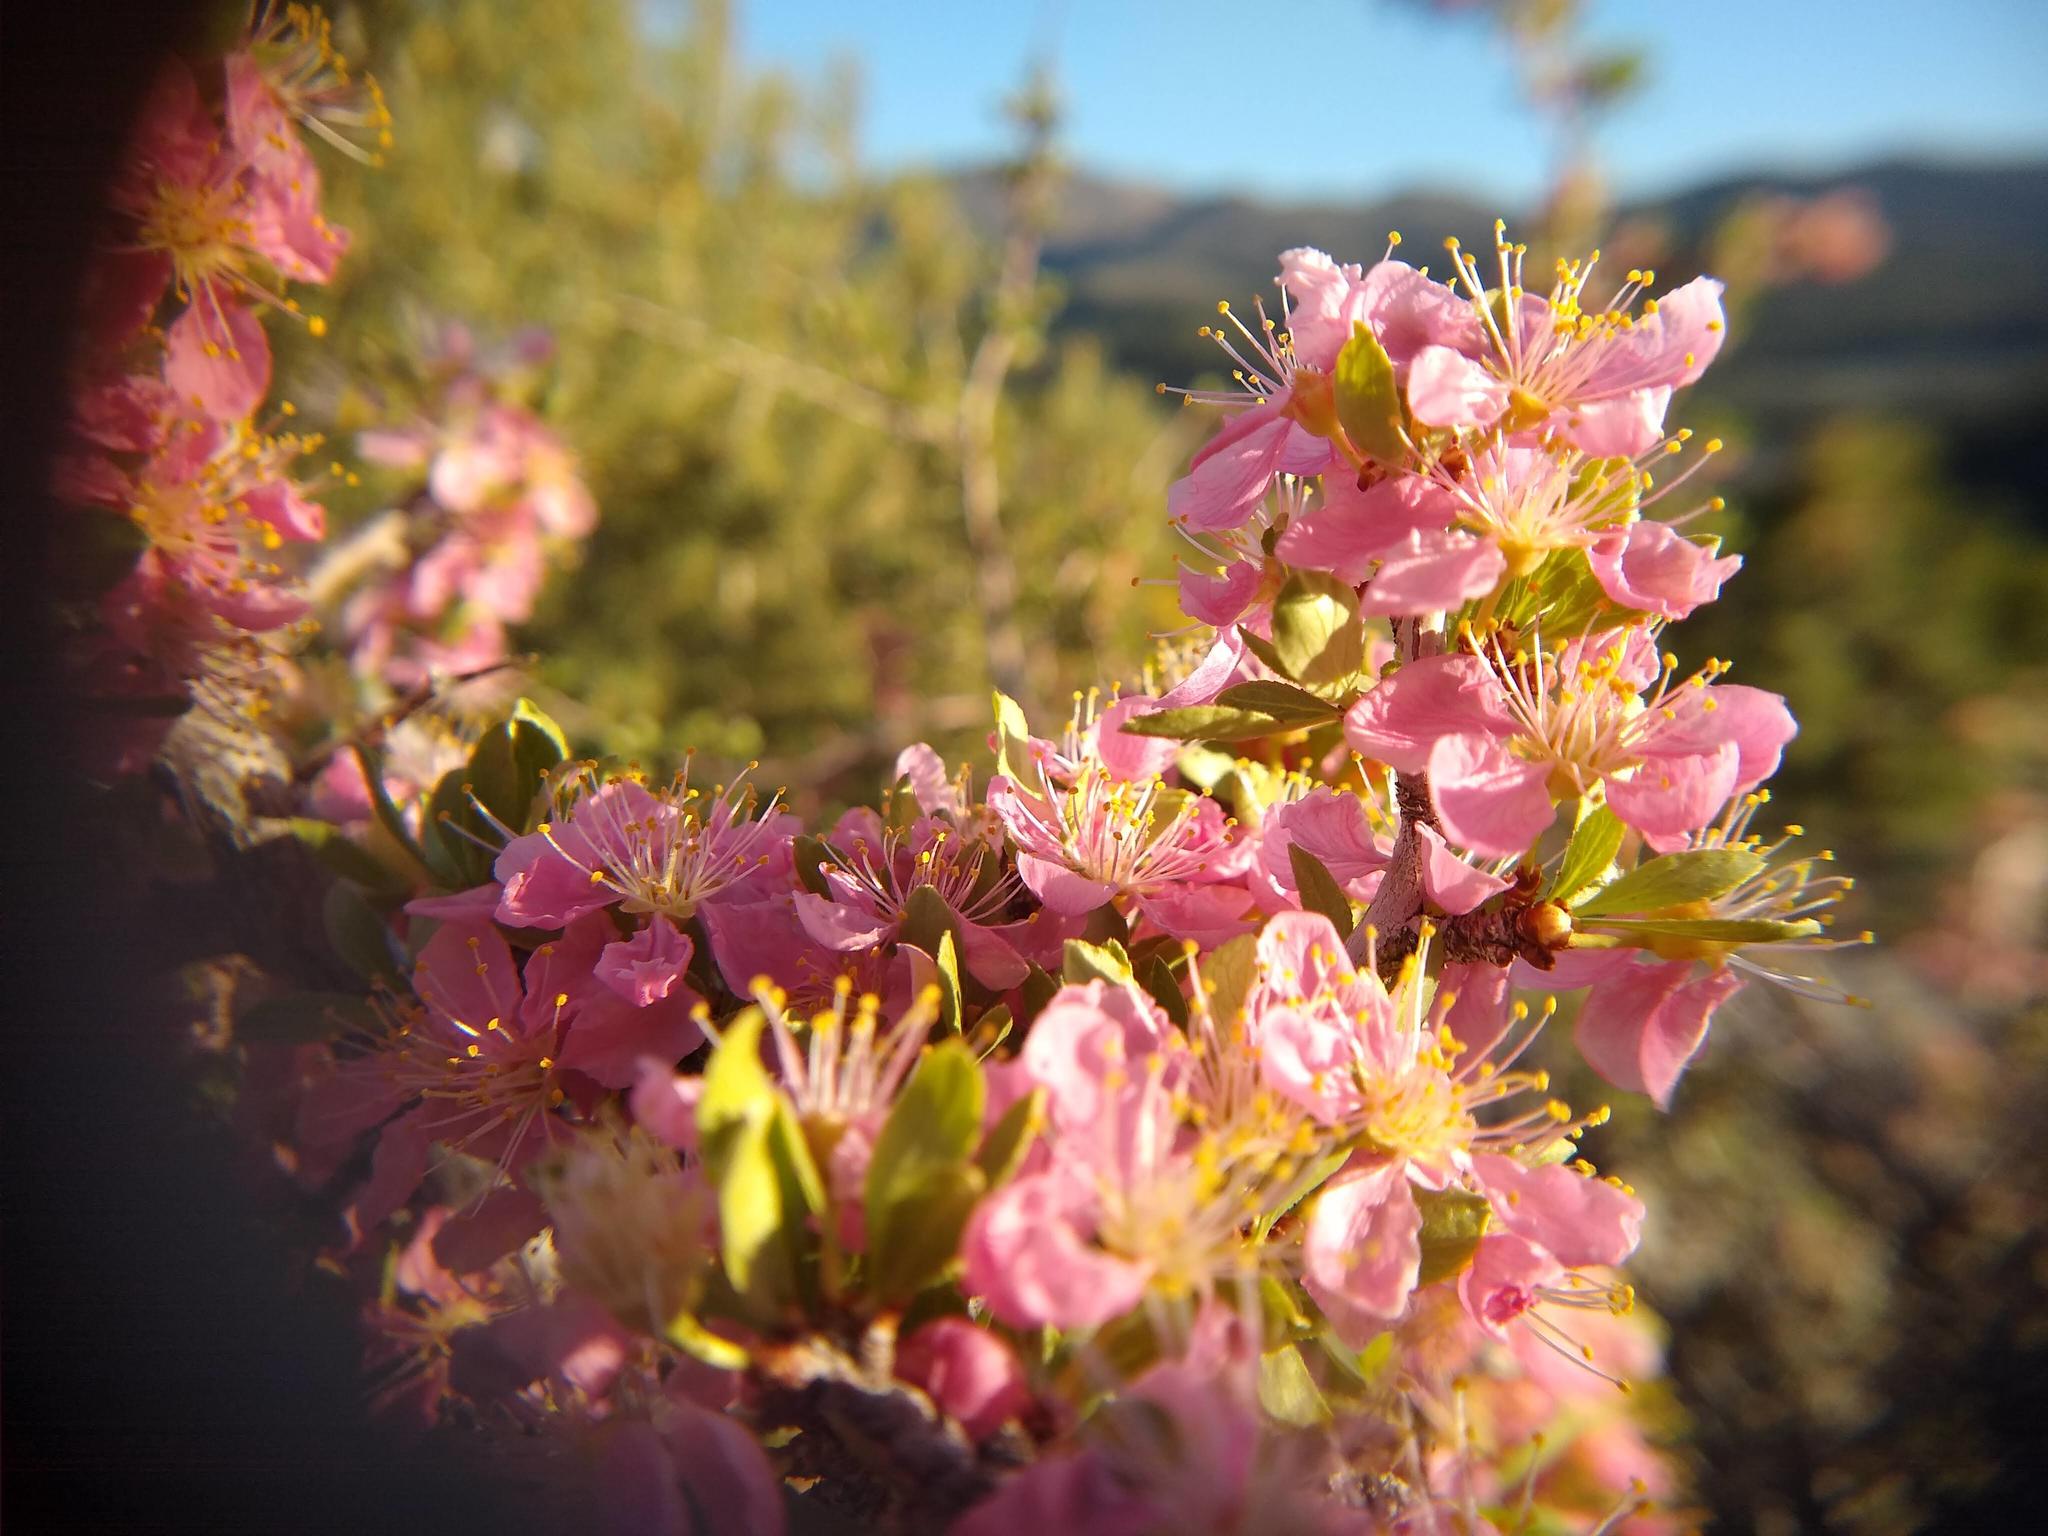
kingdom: Plantae
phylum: Tracheophyta
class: Magnoliopsida
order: Rosales
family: Rosaceae
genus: Prunus
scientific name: Prunus andersonii
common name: Desert peach
